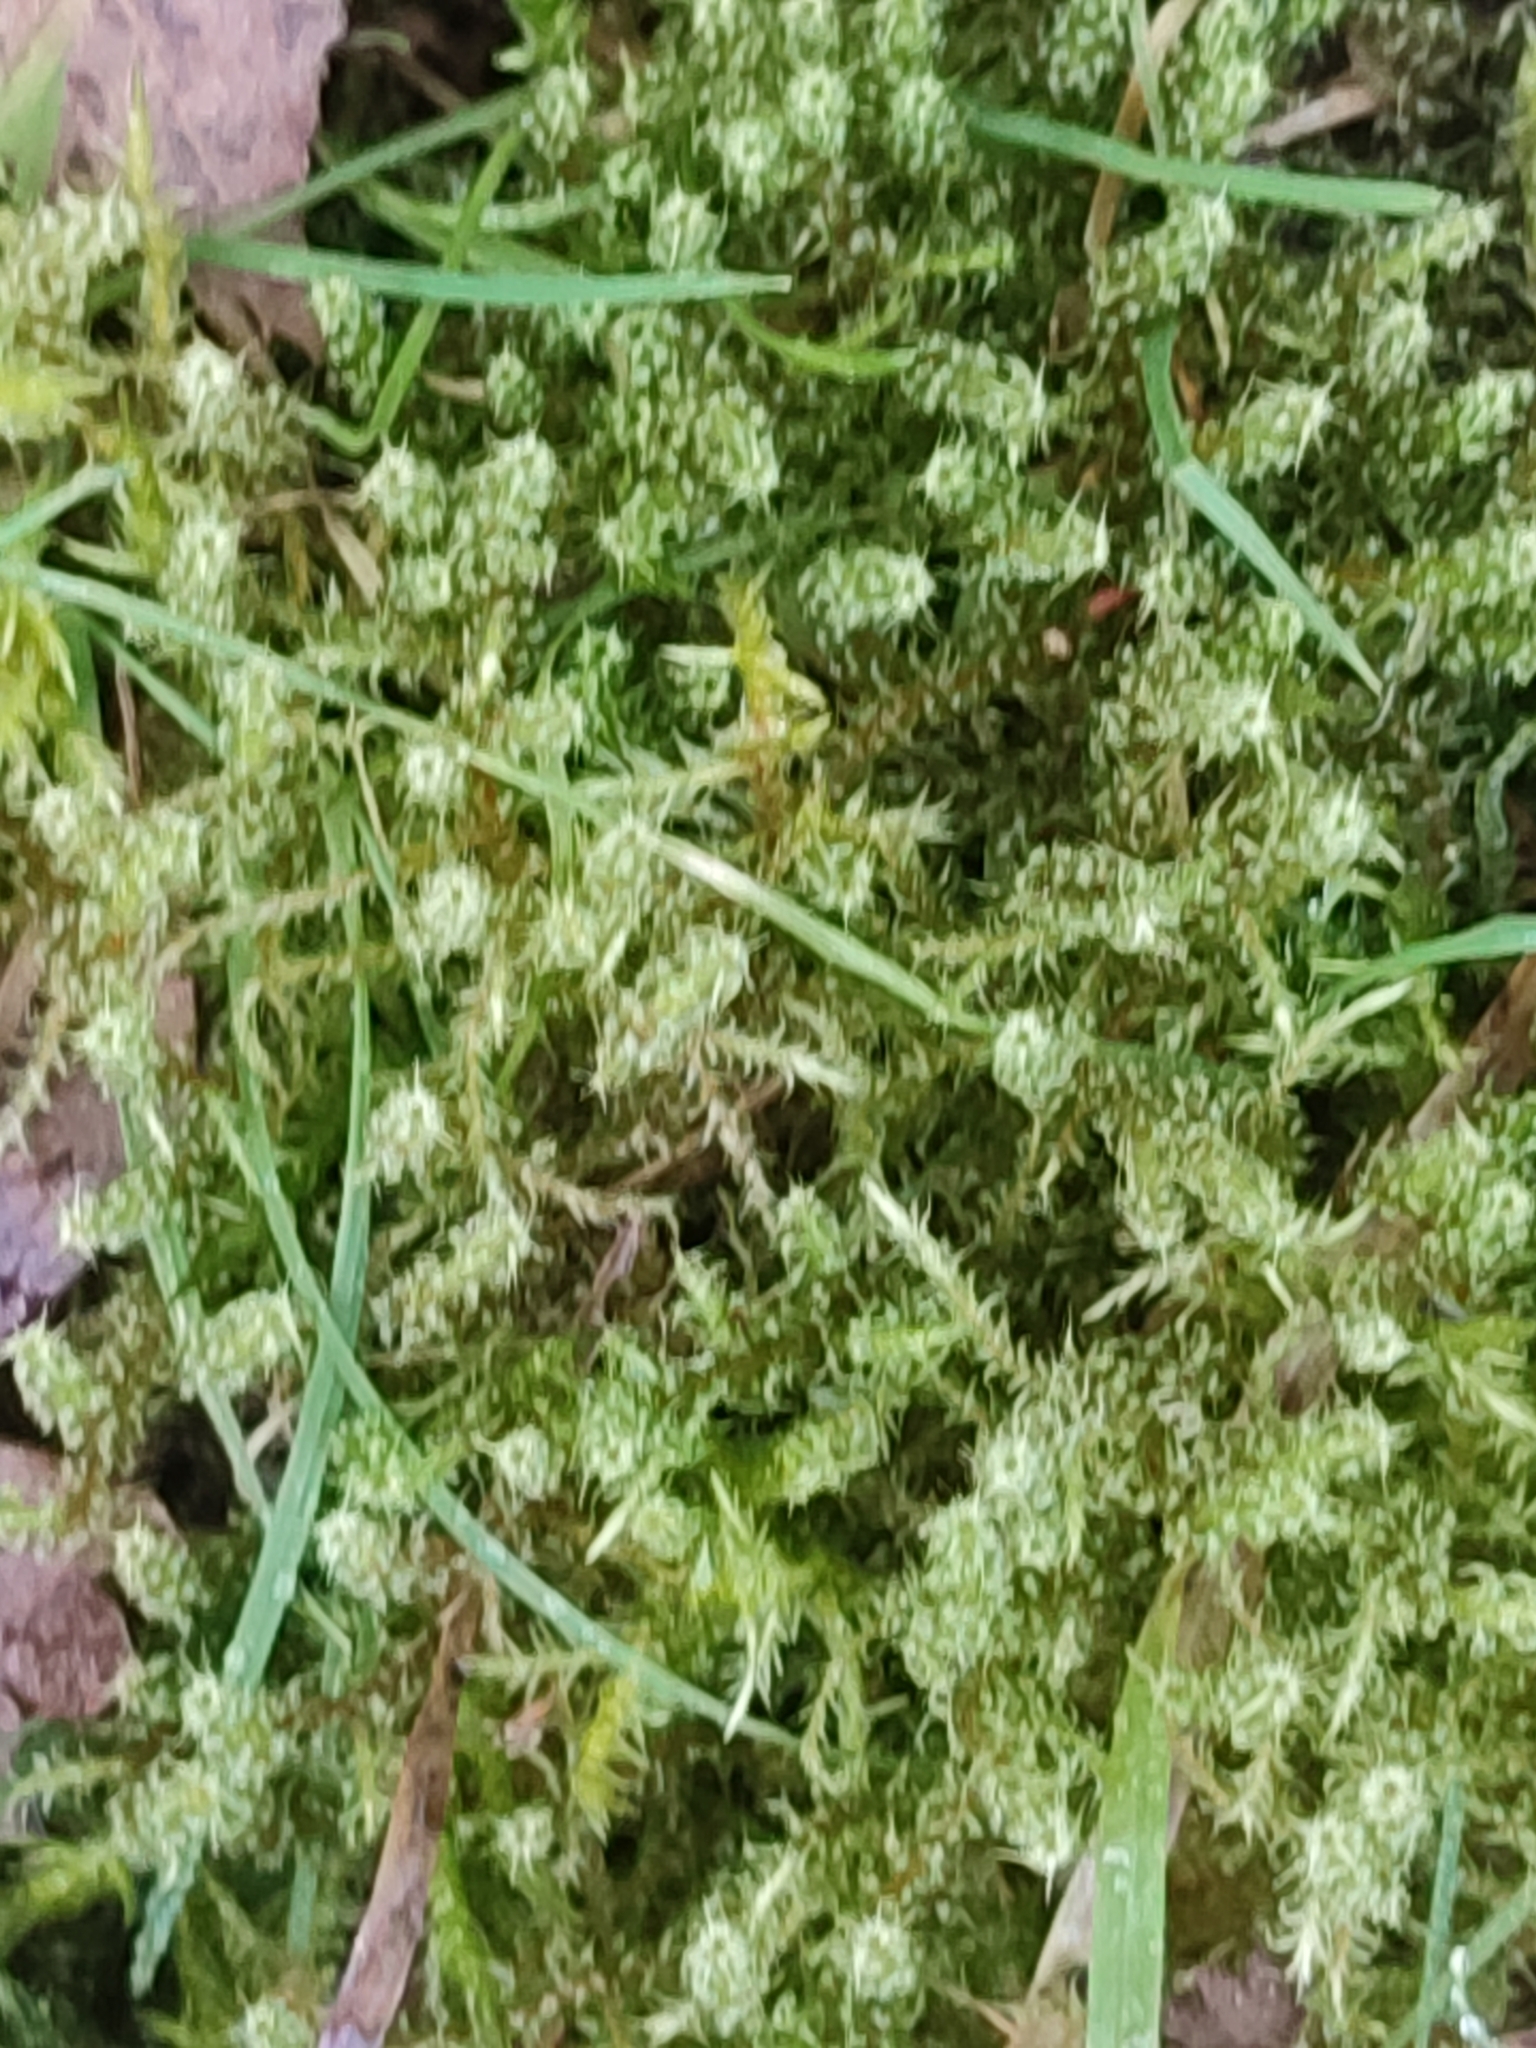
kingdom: Plantae
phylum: Bryophyta
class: Bryopsida
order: Hypnales
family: Hylocomiaceae
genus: Rhytidiadelphus
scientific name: Rhytidiadelphus squarrosus
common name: Springy turf-moss
